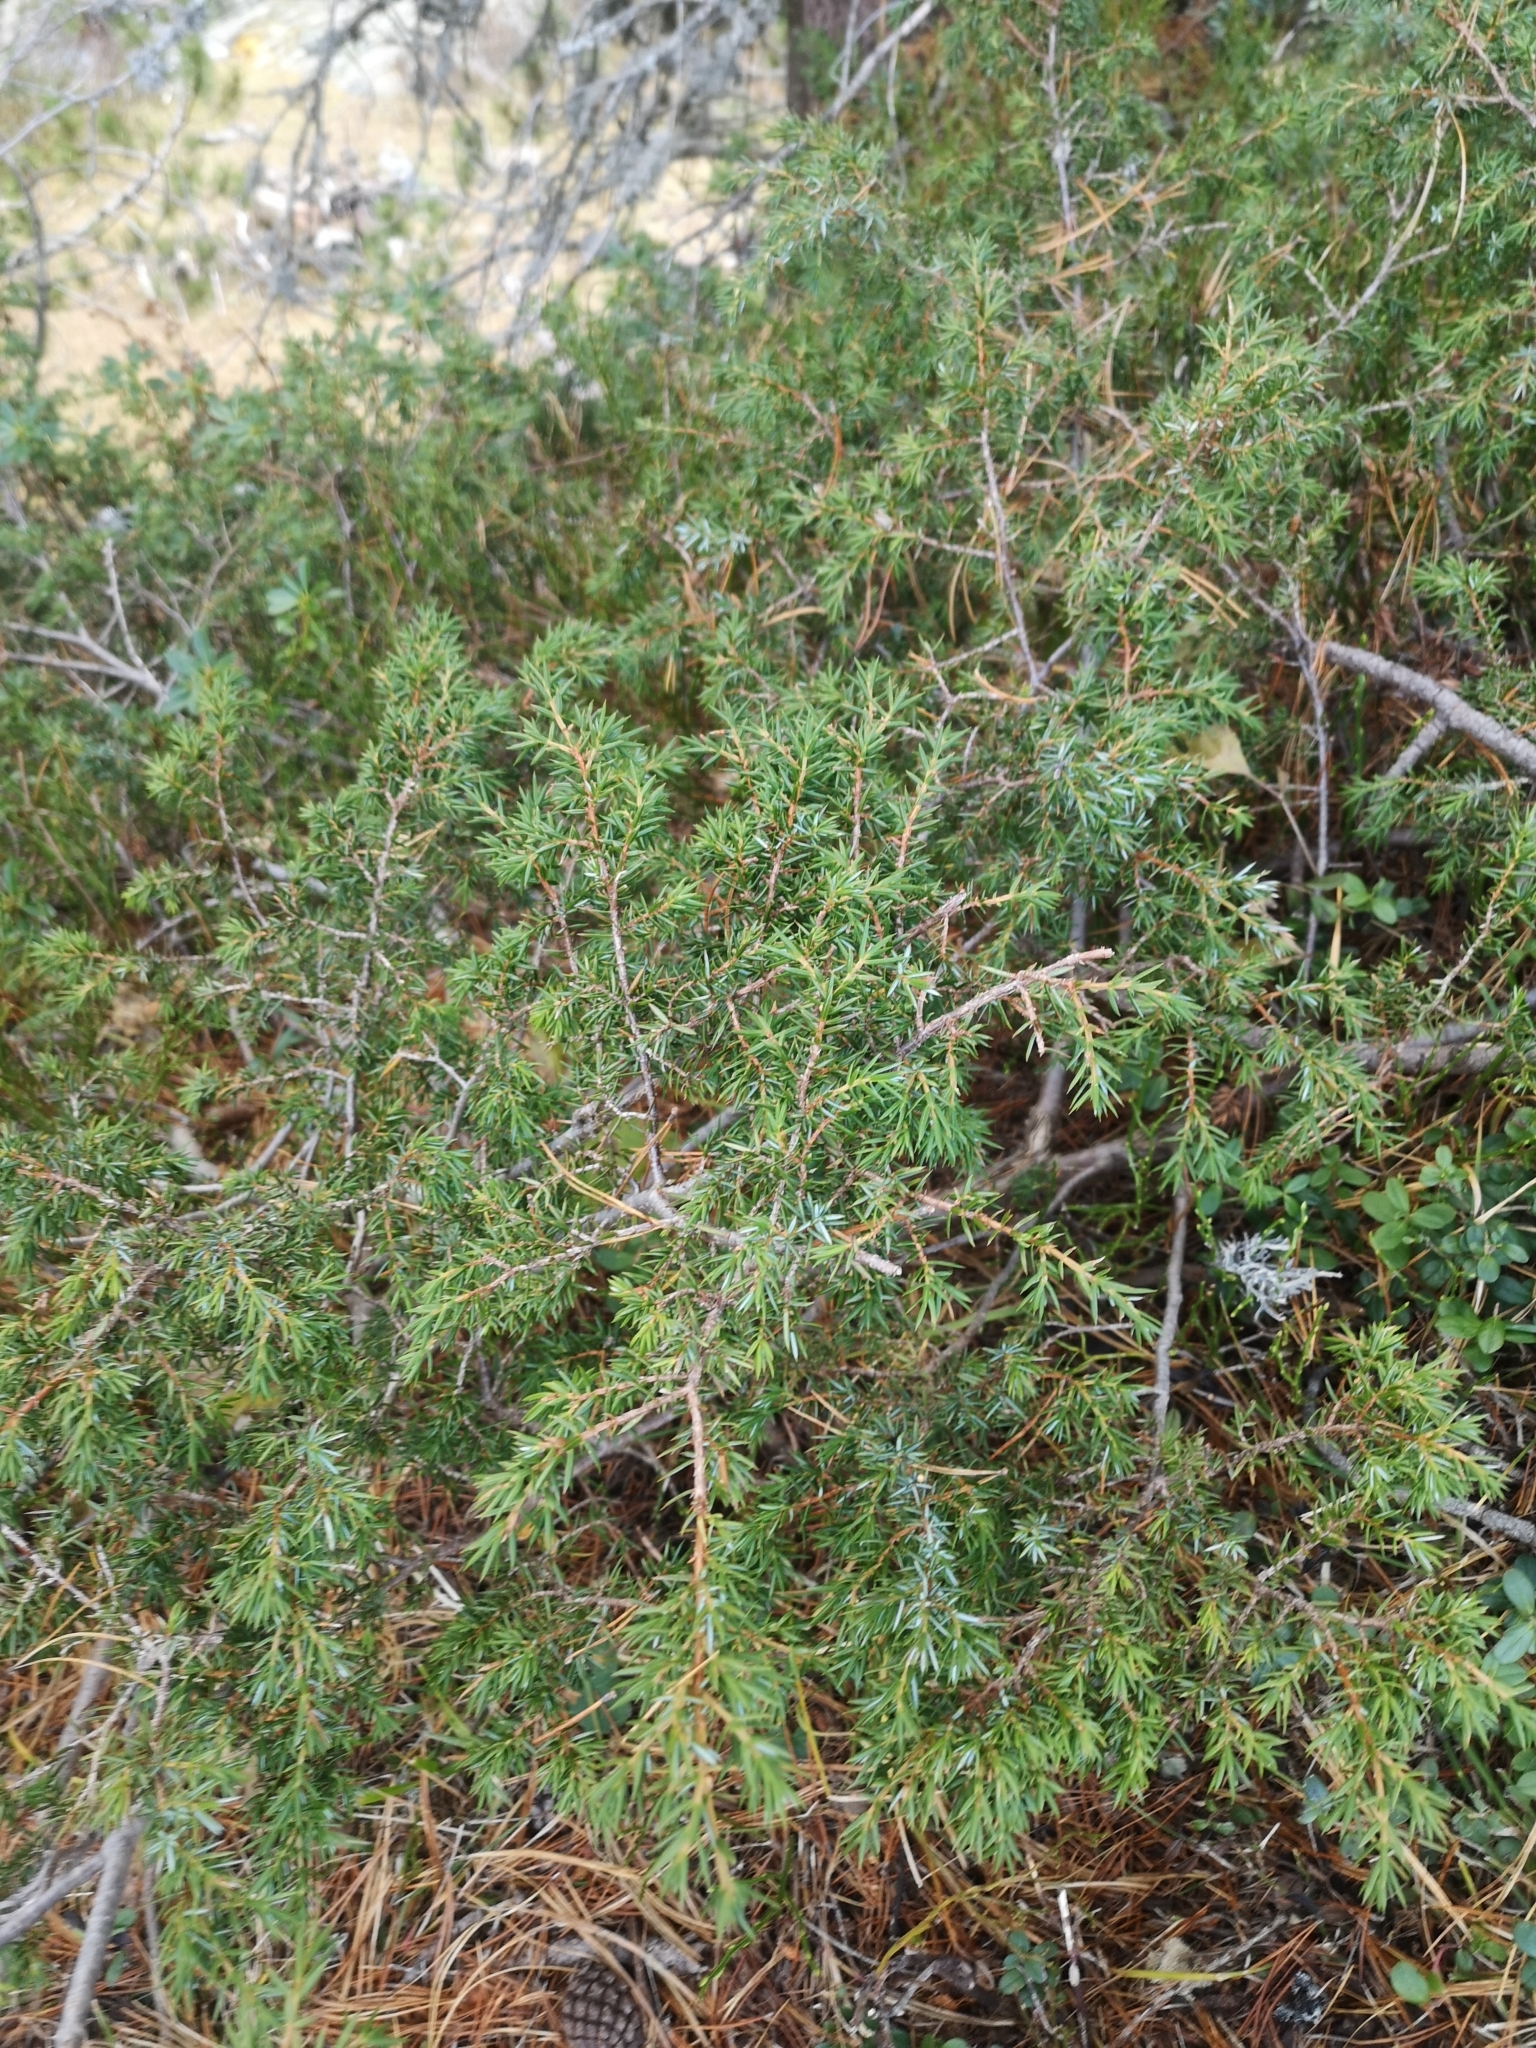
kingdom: Plantae
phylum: Tracheophyta
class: Pinopsida
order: Pinales
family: Cupressaceae
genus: Juniperus
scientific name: Juniperus communis
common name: Common juniper
